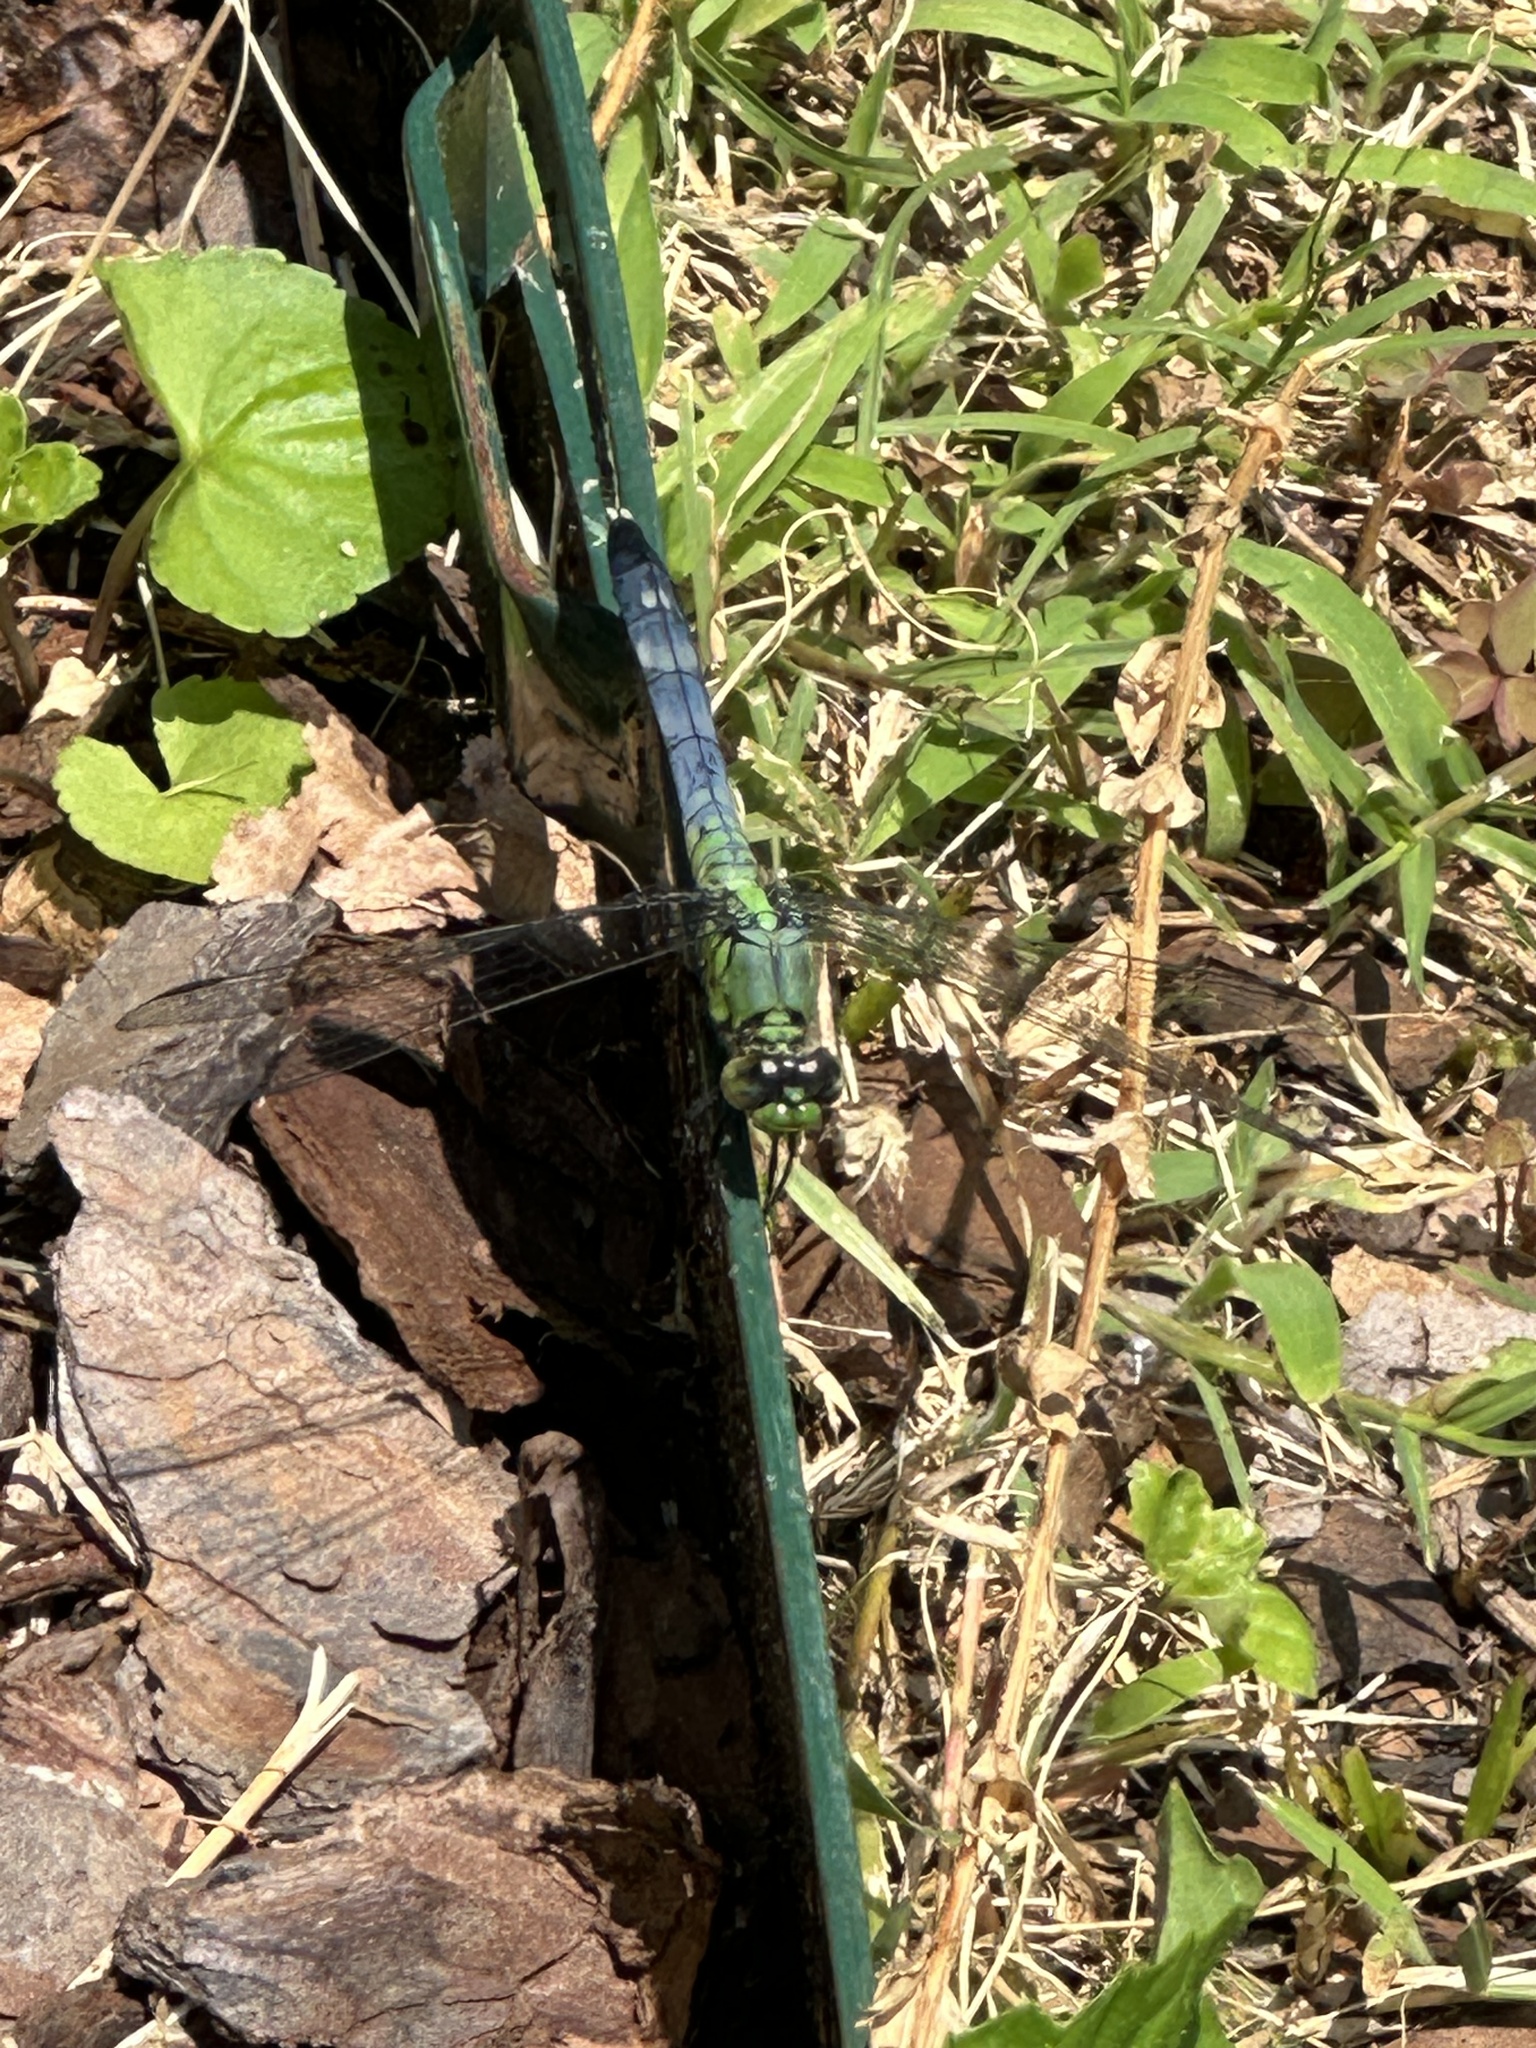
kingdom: Animalia
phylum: Arthropoda
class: Insecta
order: Odonata
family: Libellulidae
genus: Erythemis
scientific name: Erythemis simplicicollis
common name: Eastern pondhawk
